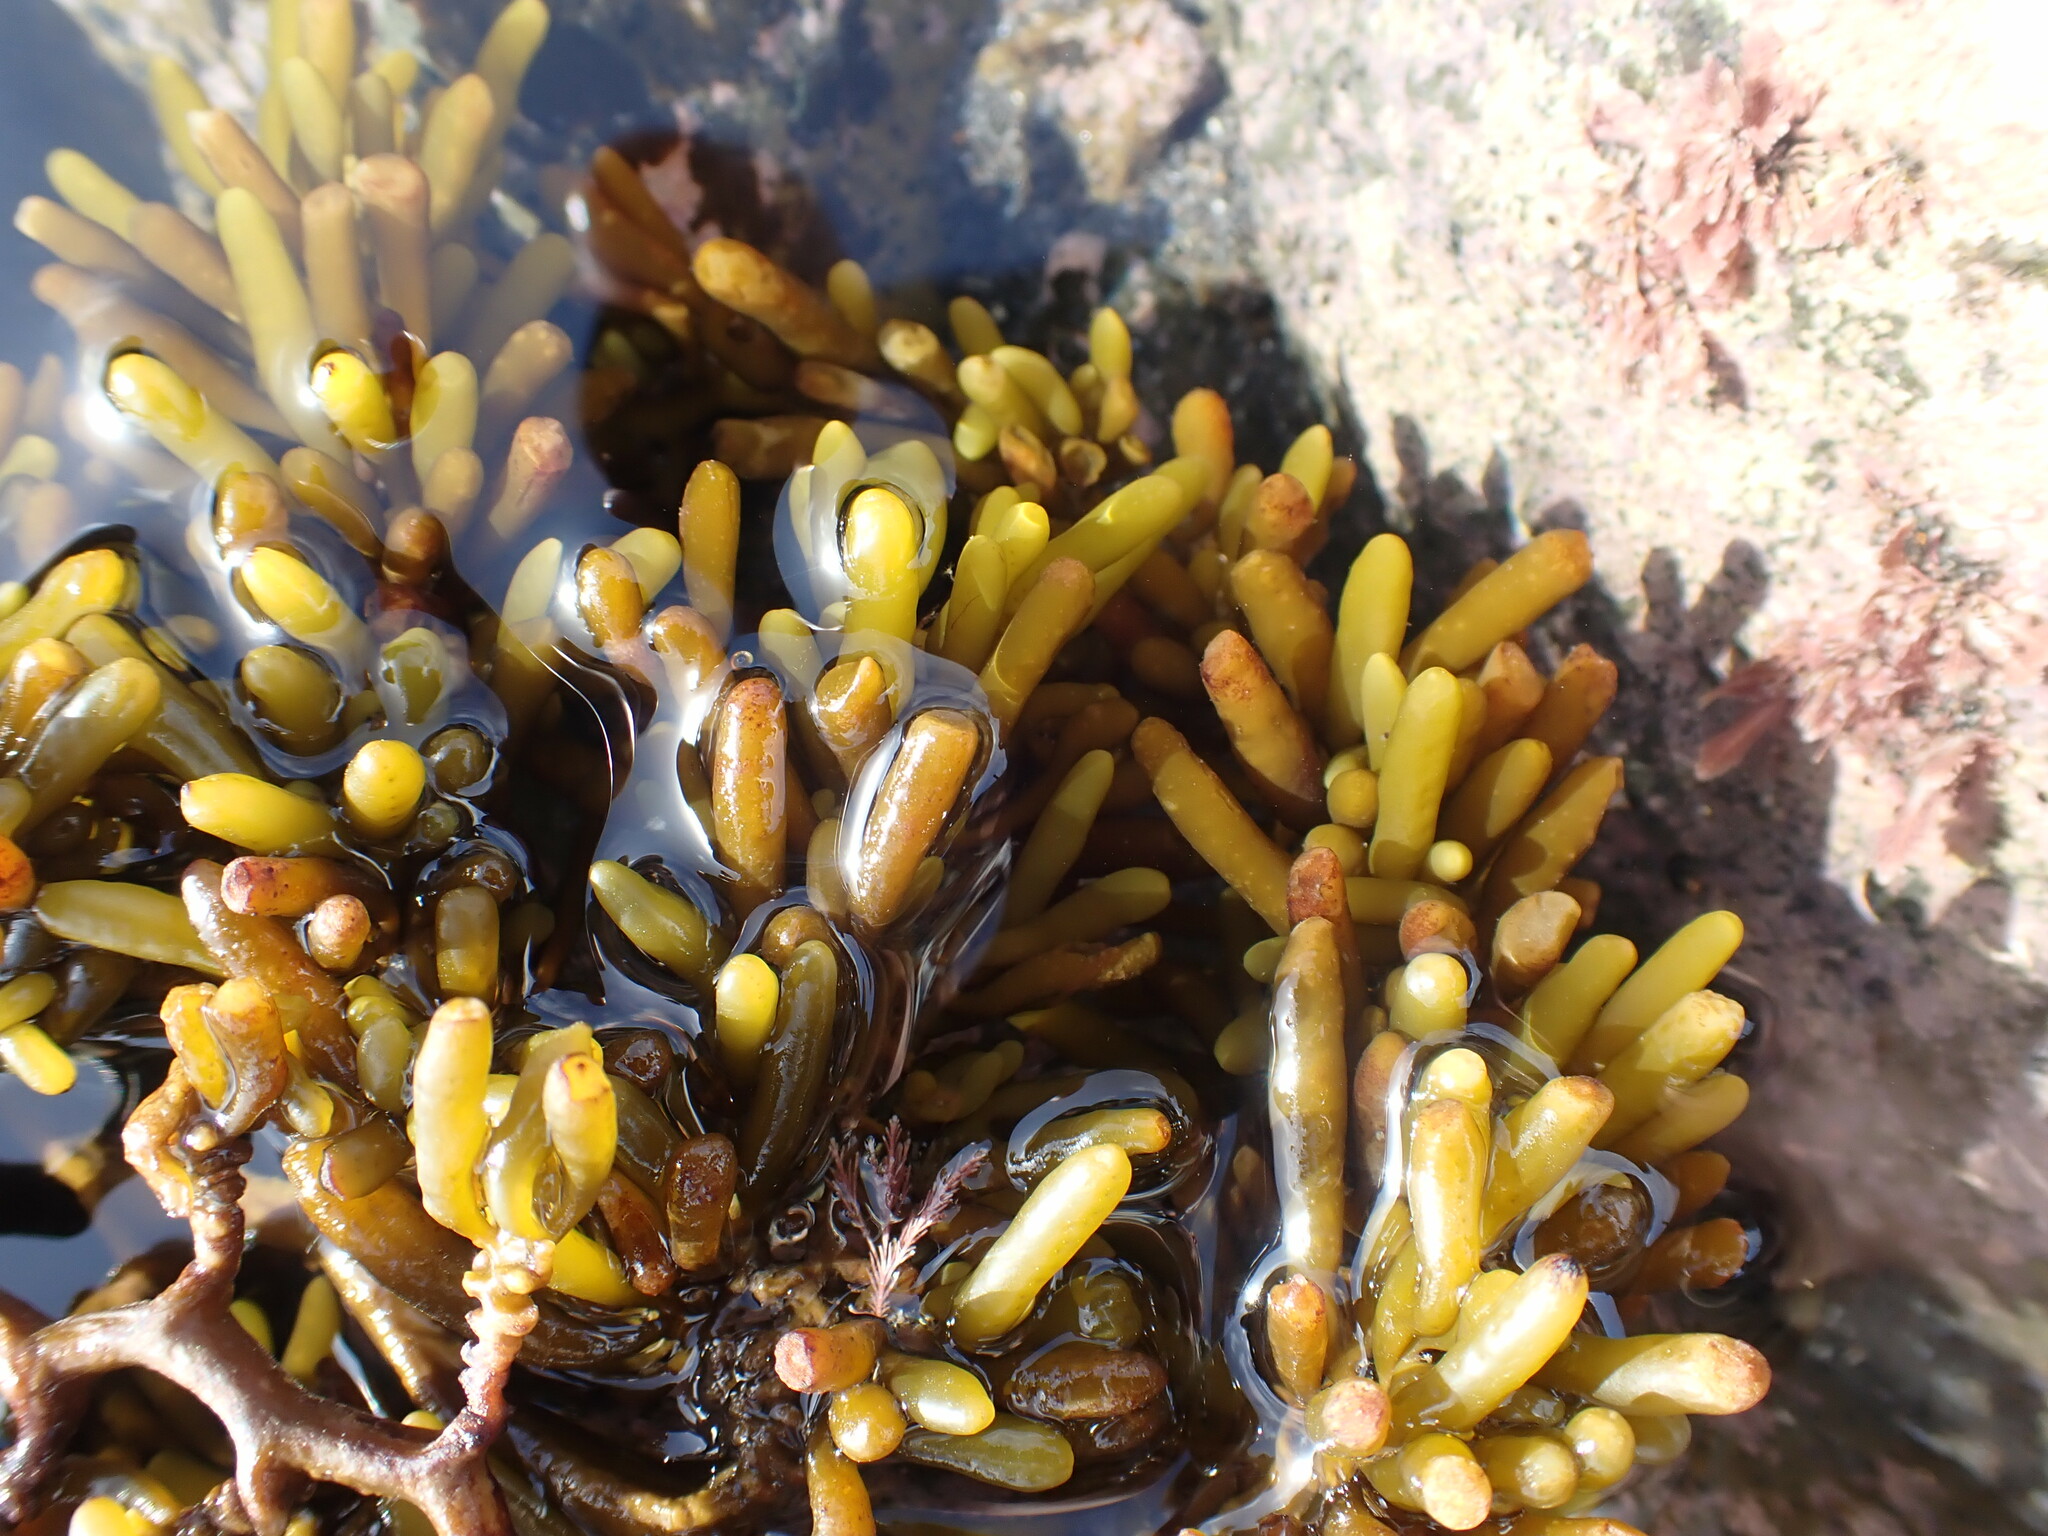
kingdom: Chromista
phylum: Ochrophyta
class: Phaeophyceae
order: Fucales
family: Sargassaceae
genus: Cystophora
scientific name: Cystophora torulosa
